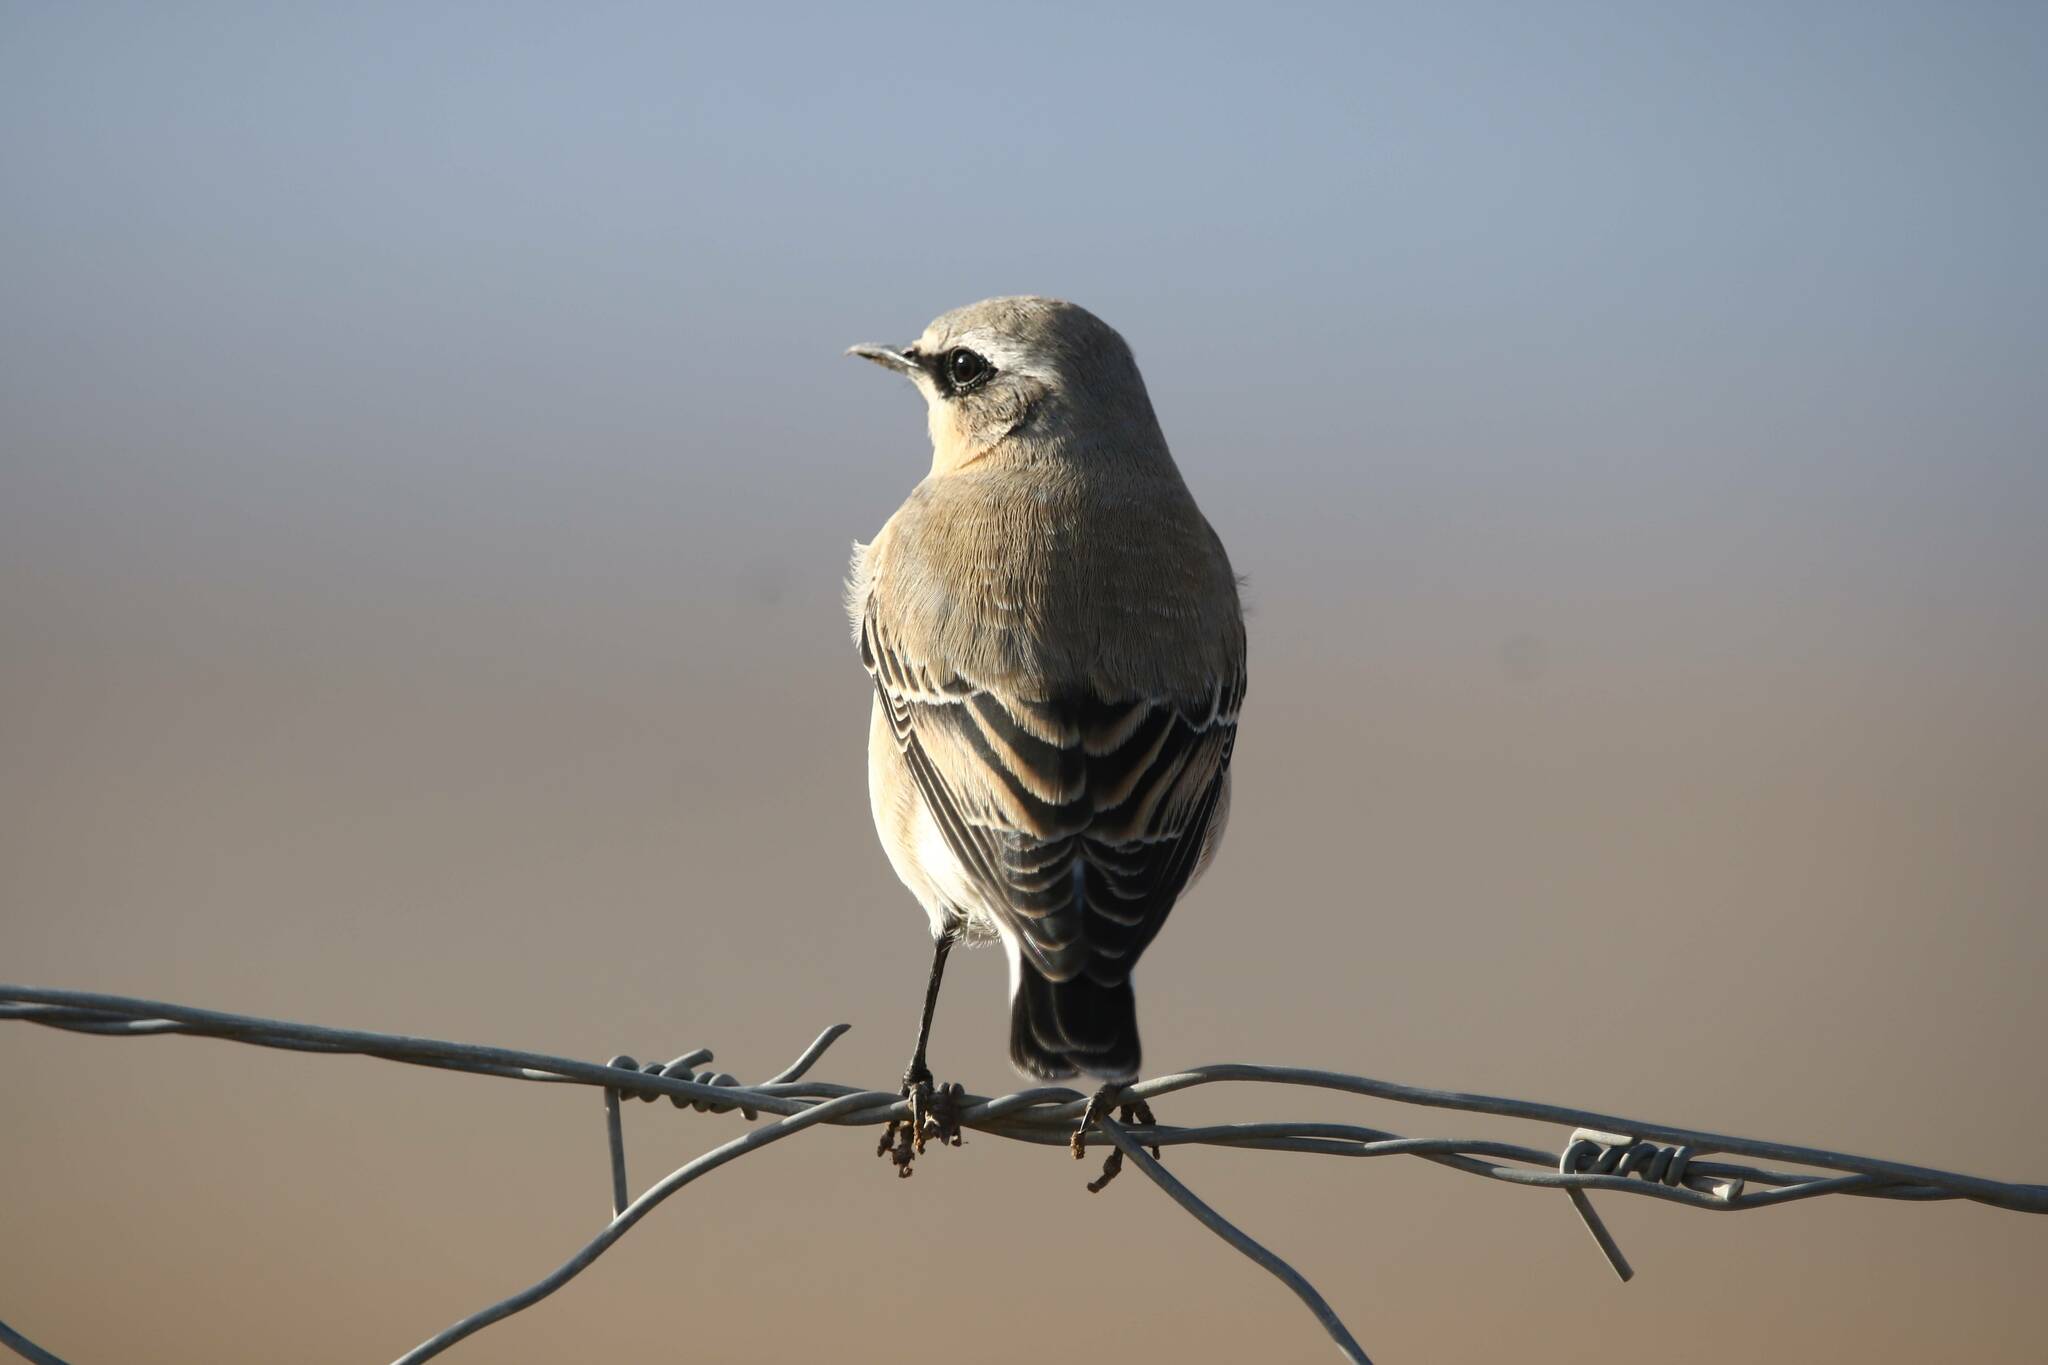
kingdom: Animalia
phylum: Chordata
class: Aves
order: Passeriformes
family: Muscicapidae
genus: Oenanthe
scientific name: Oenanthe oenanthe
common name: Northern wheatear
